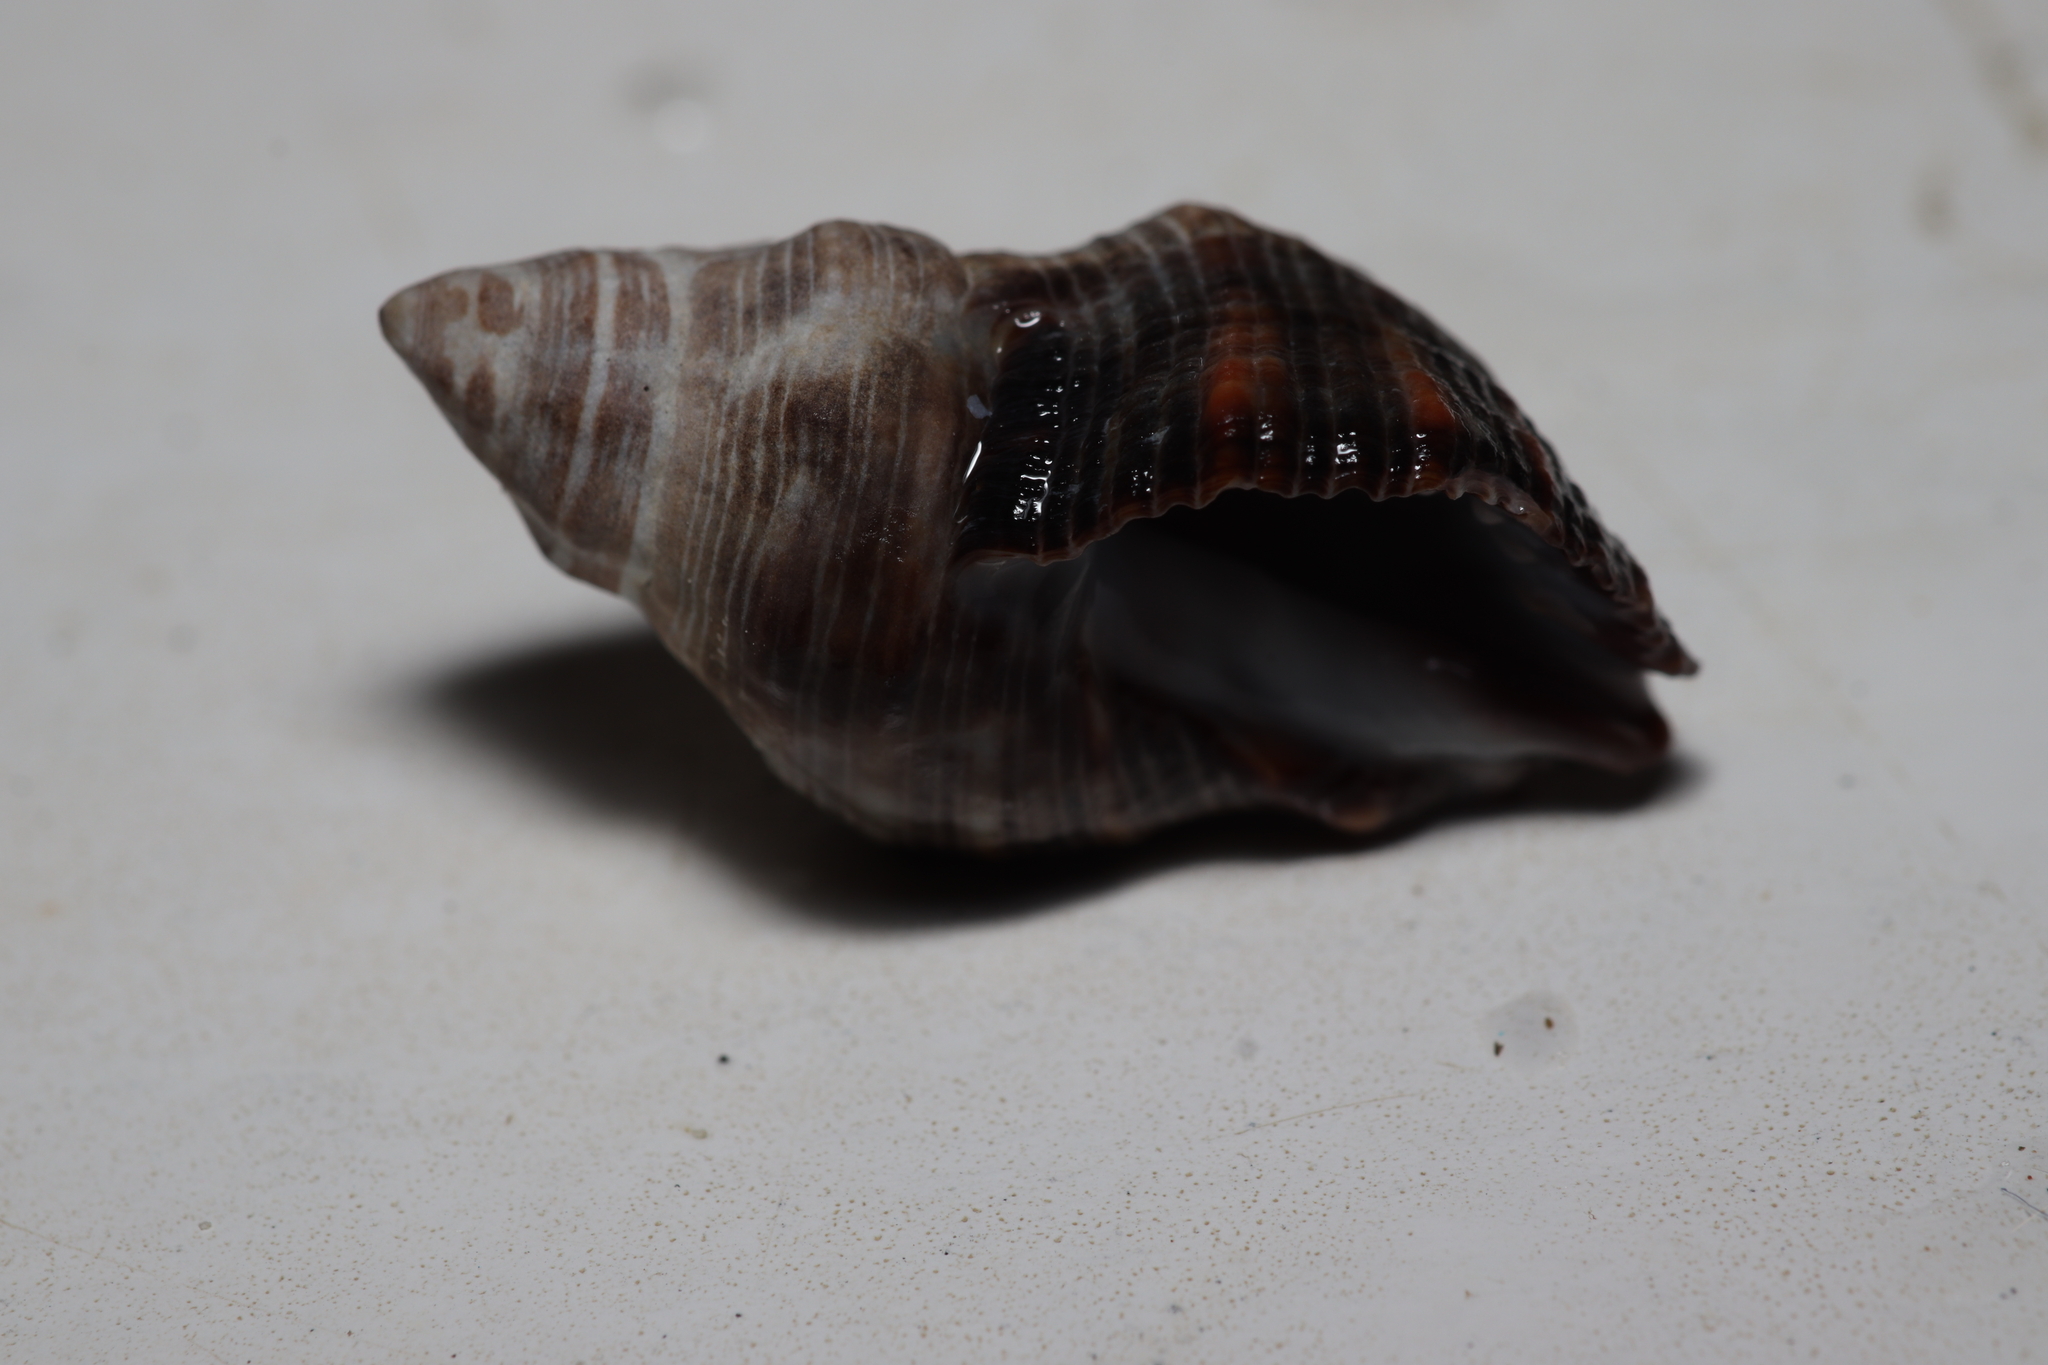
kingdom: Animalia
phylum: Mollusca
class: Gastropoda
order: Neogastropoda
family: Muricidae
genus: Stramonita
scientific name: Stramonita rustica
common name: Rustic rocksnail
